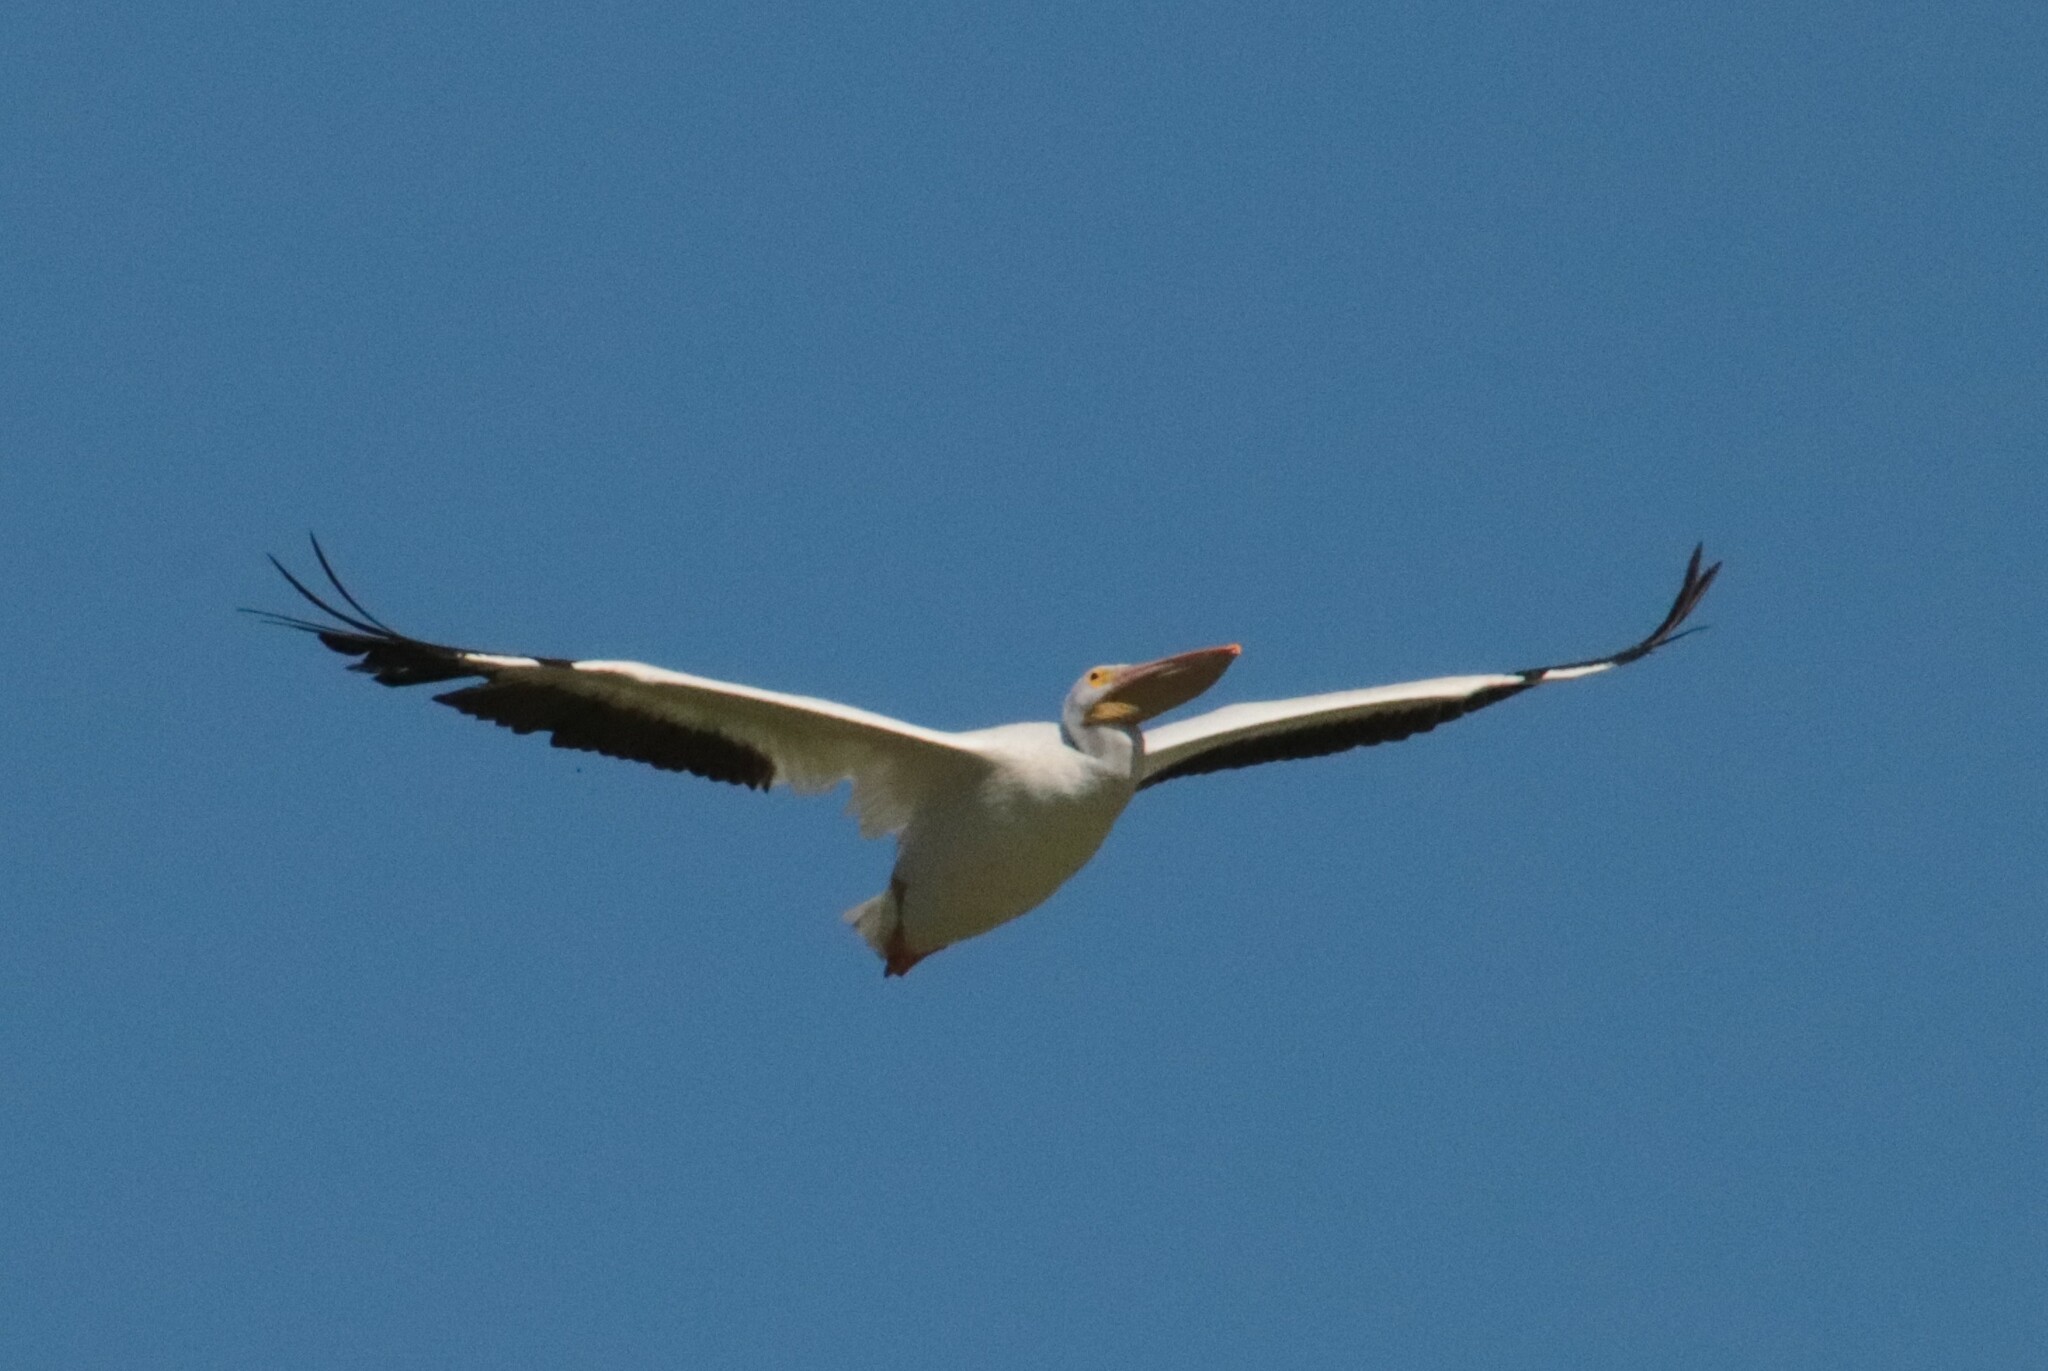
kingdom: Animalia
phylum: Chordata
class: Aves
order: Pelecaniformes
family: Pelecanidae
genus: Pelecanus
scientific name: Pelecanus erythrorhynchos
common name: American white pelican
